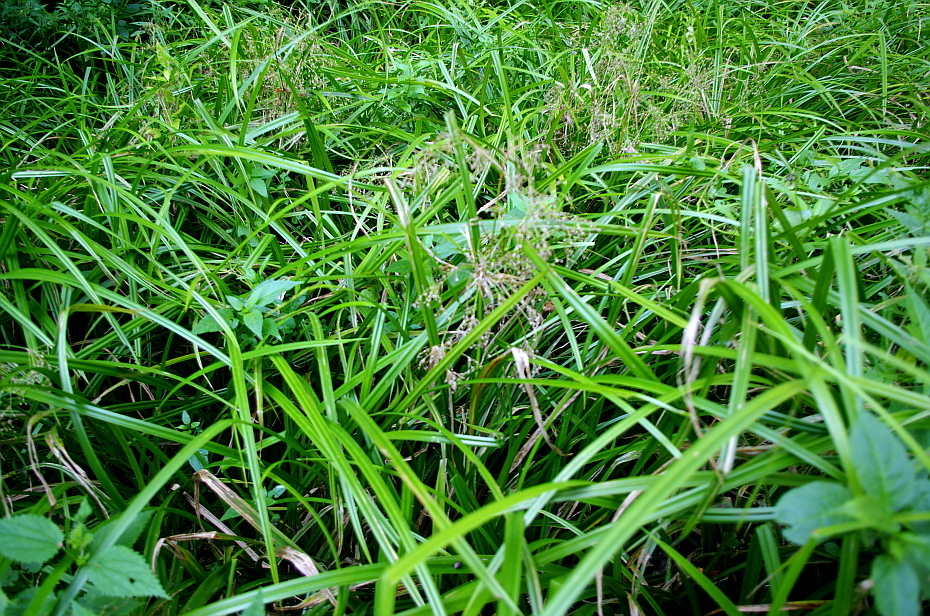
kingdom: Plantae
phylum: Tracheophyta
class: Liliopsida
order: Poales
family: Cyperaceae
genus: Scirpus
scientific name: Scirpus sylvaticus
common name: Wood club-rush
